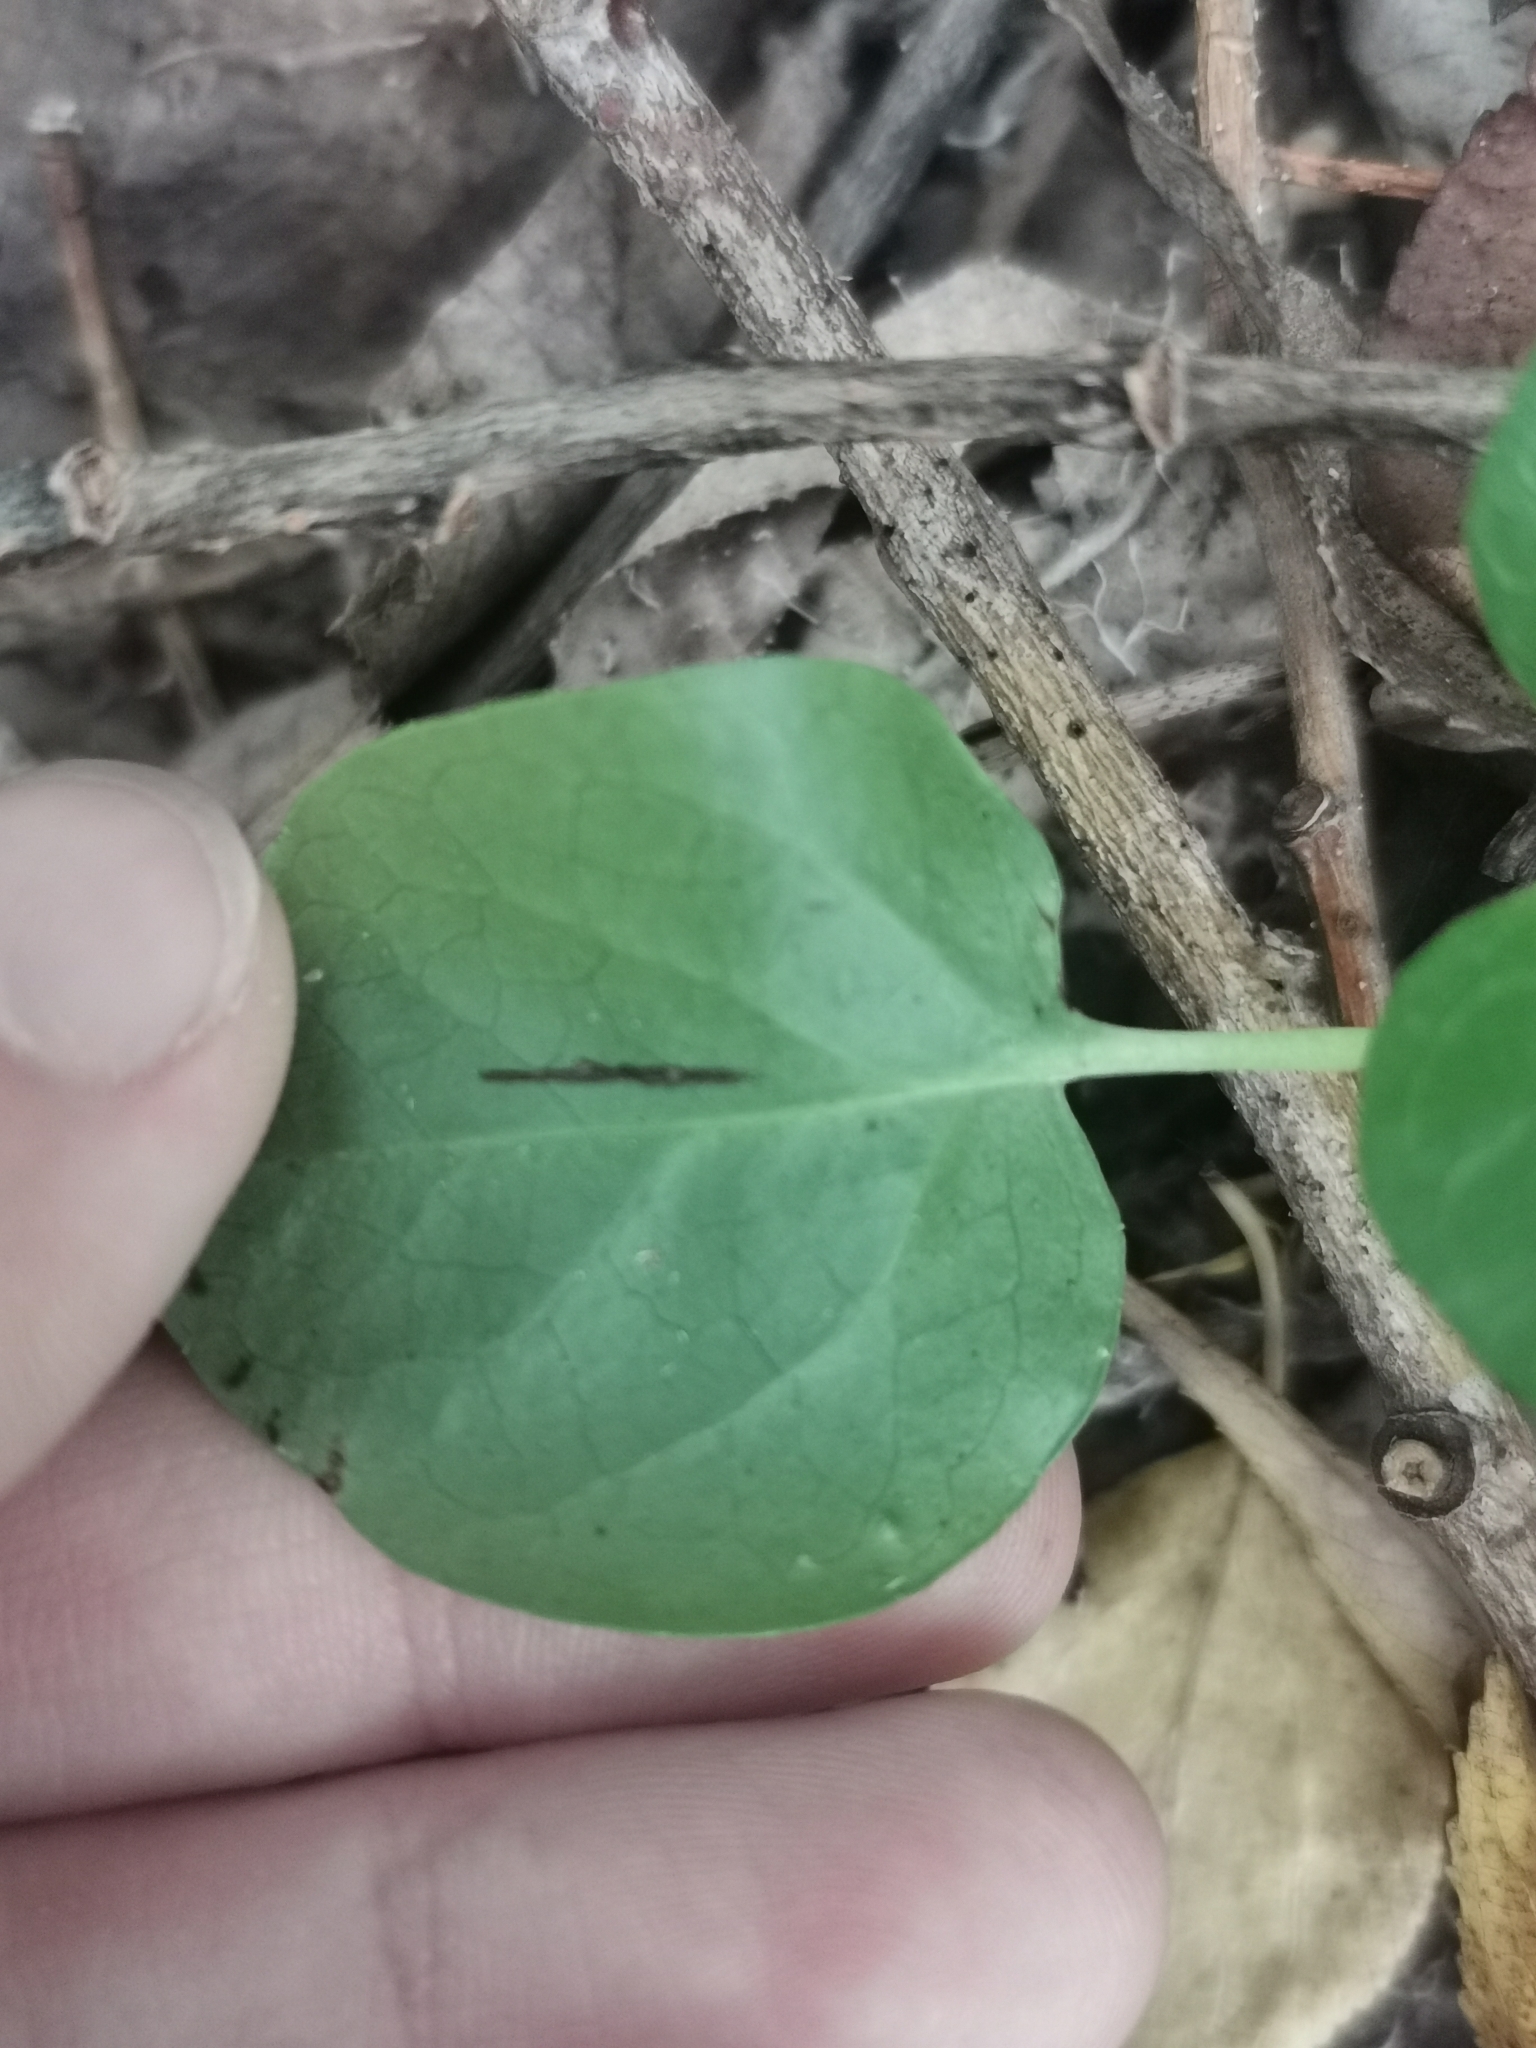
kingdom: Plantae
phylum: Tracheophyta
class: Magnoliopsida
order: Ericales
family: Ericaceae
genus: Pyrola
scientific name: Pyrola rotundifolia
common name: Round-leaved wintergreen
